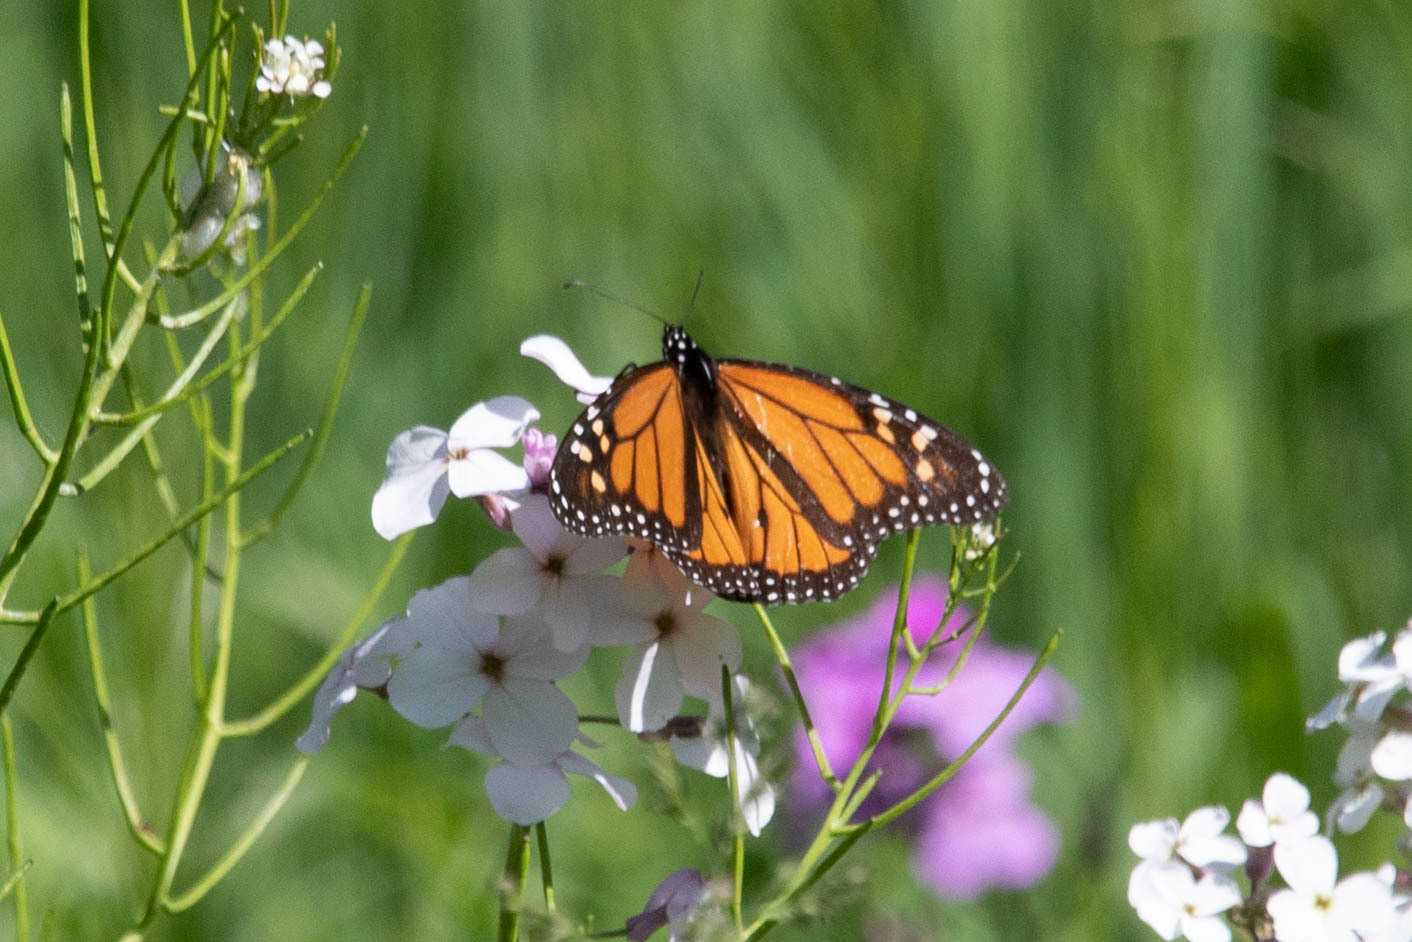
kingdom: Animalia
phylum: Arthropoda
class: Insecta
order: Lepidoptera
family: Nymphalidae
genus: Danaus
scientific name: Danaus plexippus
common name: Monarch
